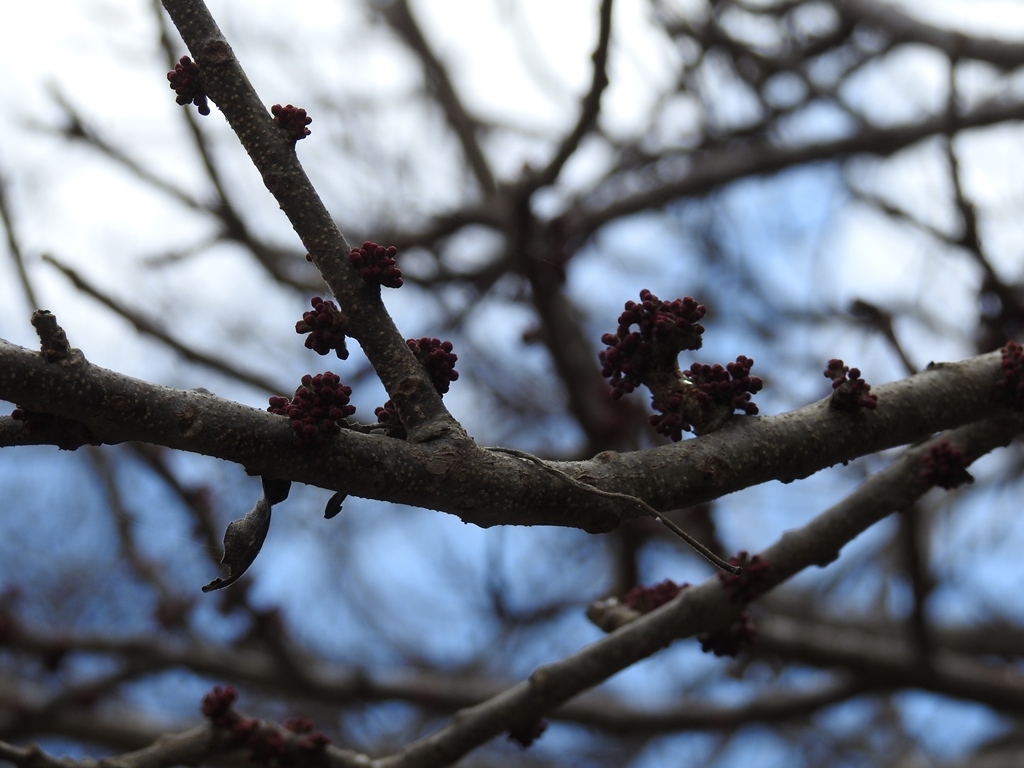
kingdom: Plantae
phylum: Tracheophyta
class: Magnoliopsida
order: Sapindales
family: Anacardiaceae
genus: Spondias
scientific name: Spondias purpurea
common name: Purple mombin
